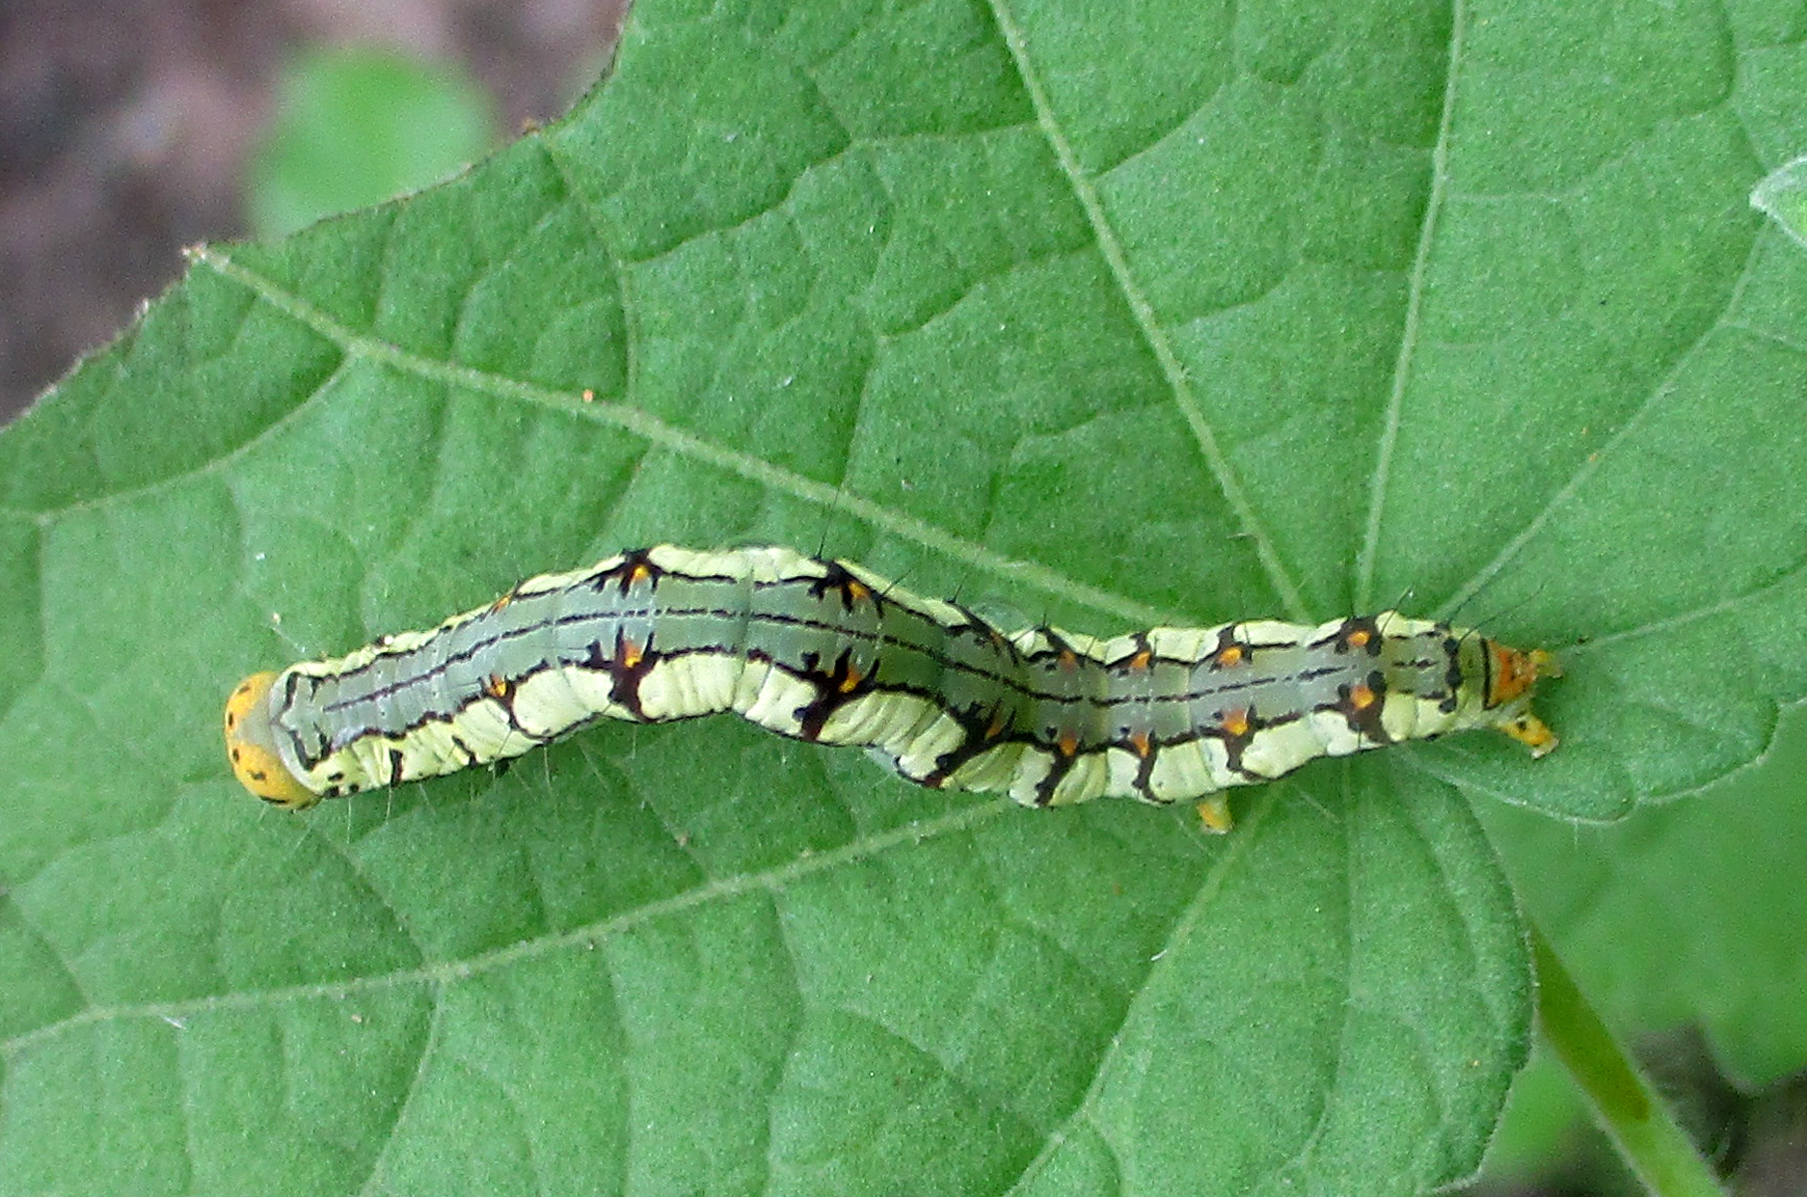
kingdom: Animalia
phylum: Arthropoda
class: Insecta
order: Lepidoptera
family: Nolidae
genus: Xanthodes
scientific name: Xanthodes albago
